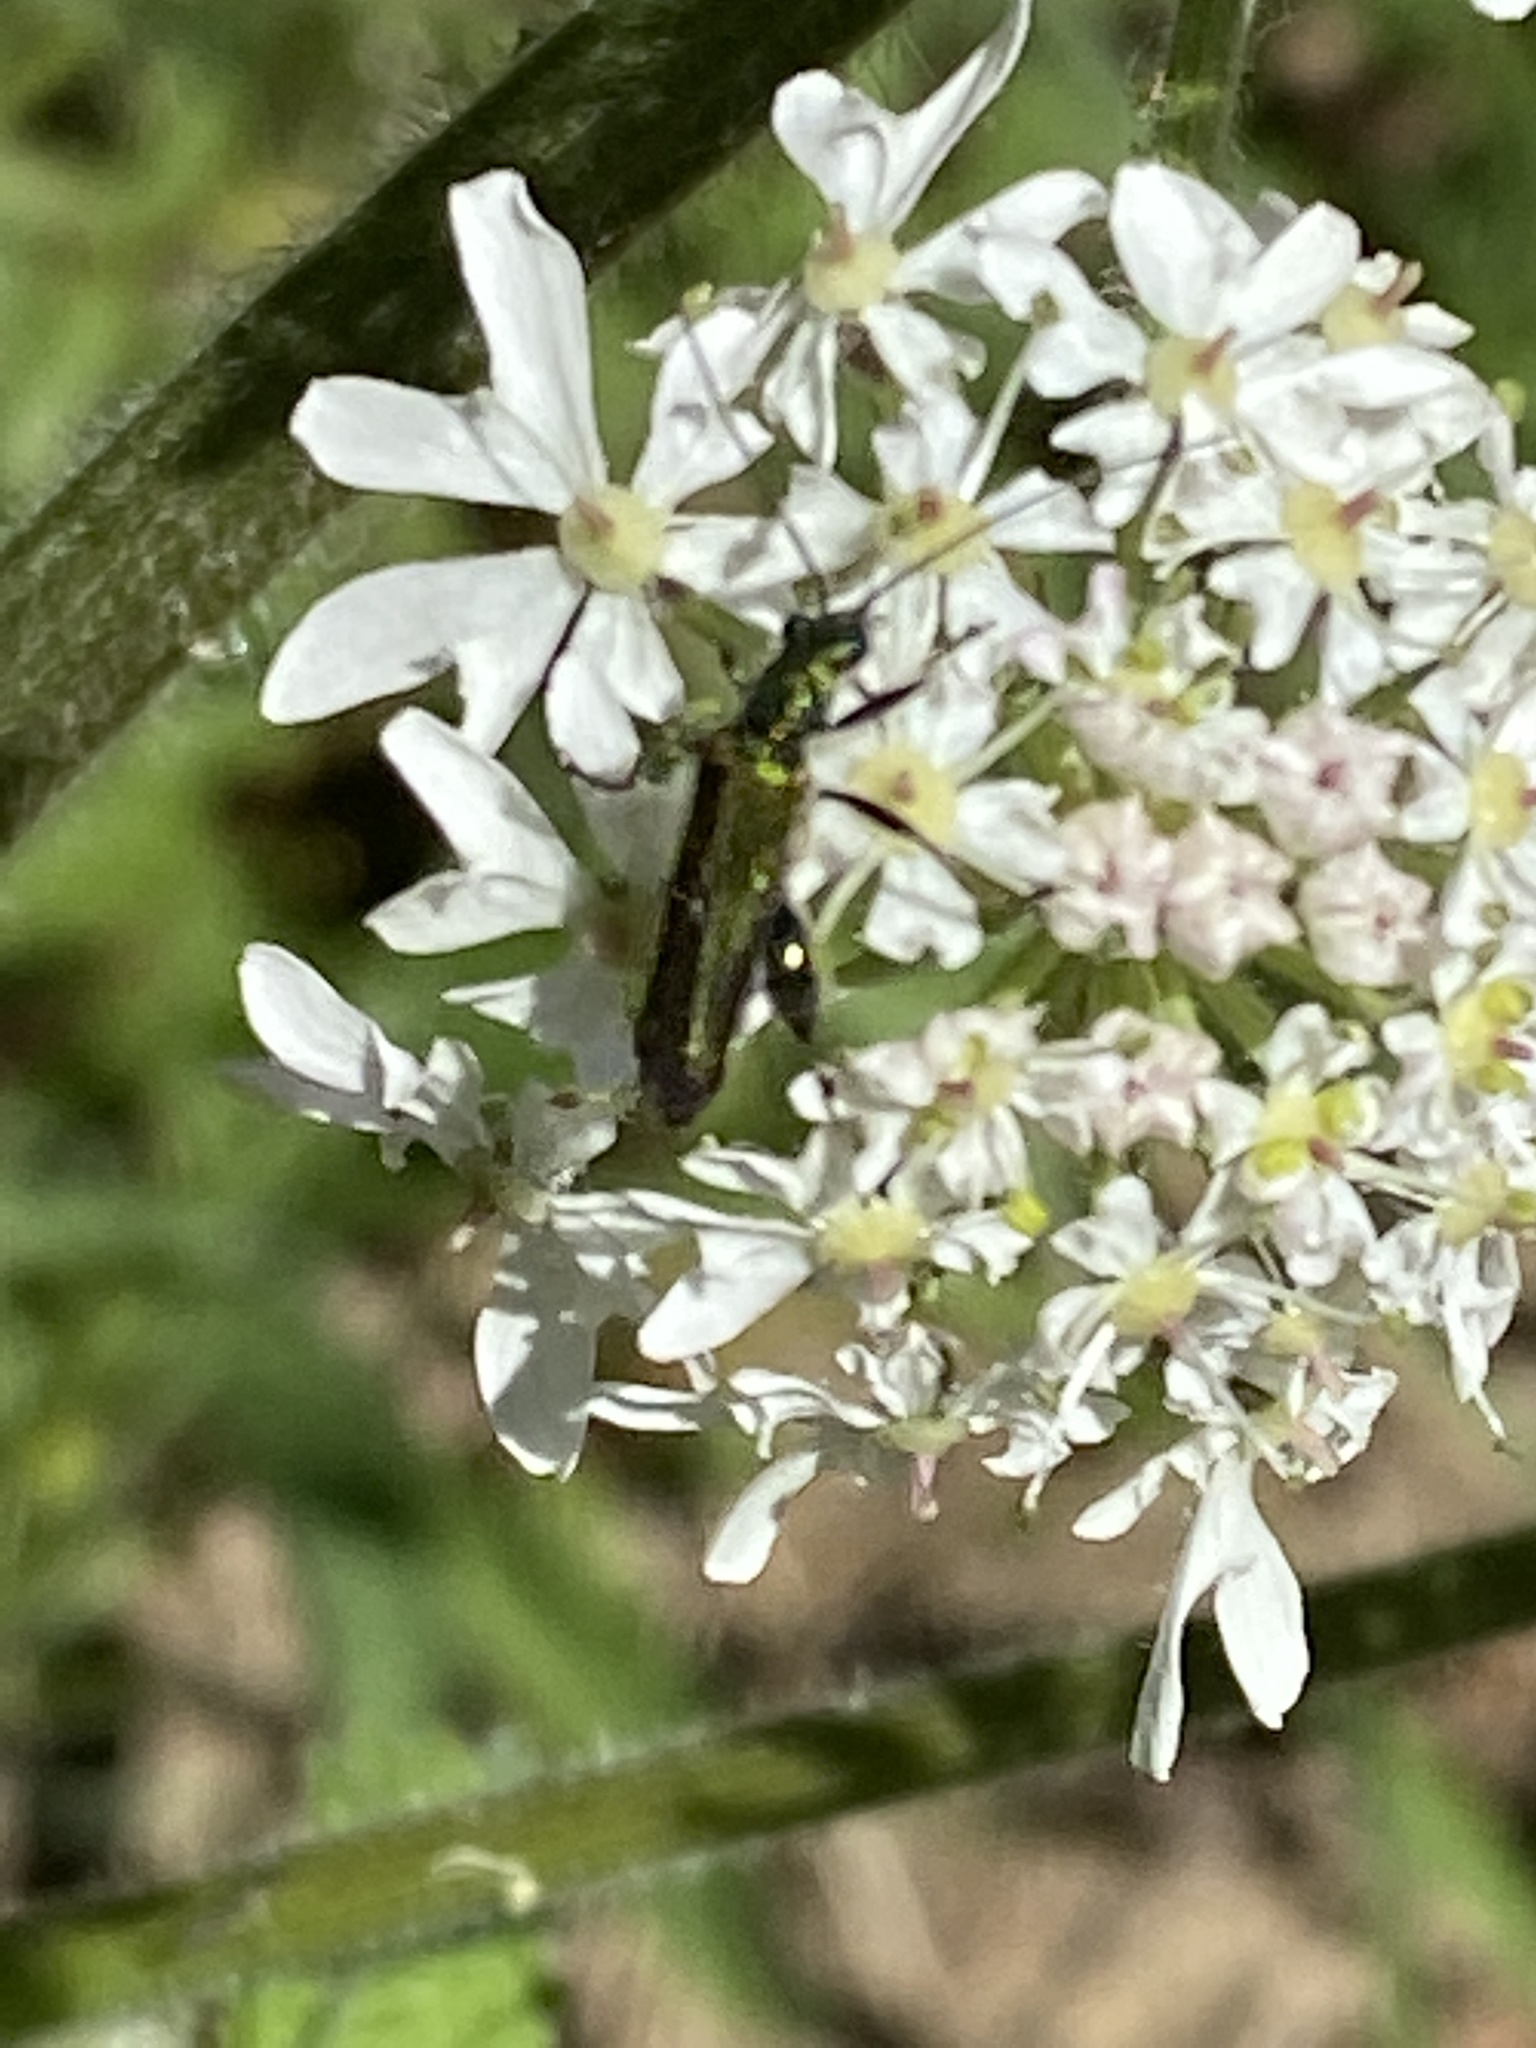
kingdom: Animalia
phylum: Arthropoda
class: Insecta
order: Coleoptera
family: Oedemeridae
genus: Oedemera
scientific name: Oedemera nobilis
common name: Swollen-thighed beetle
